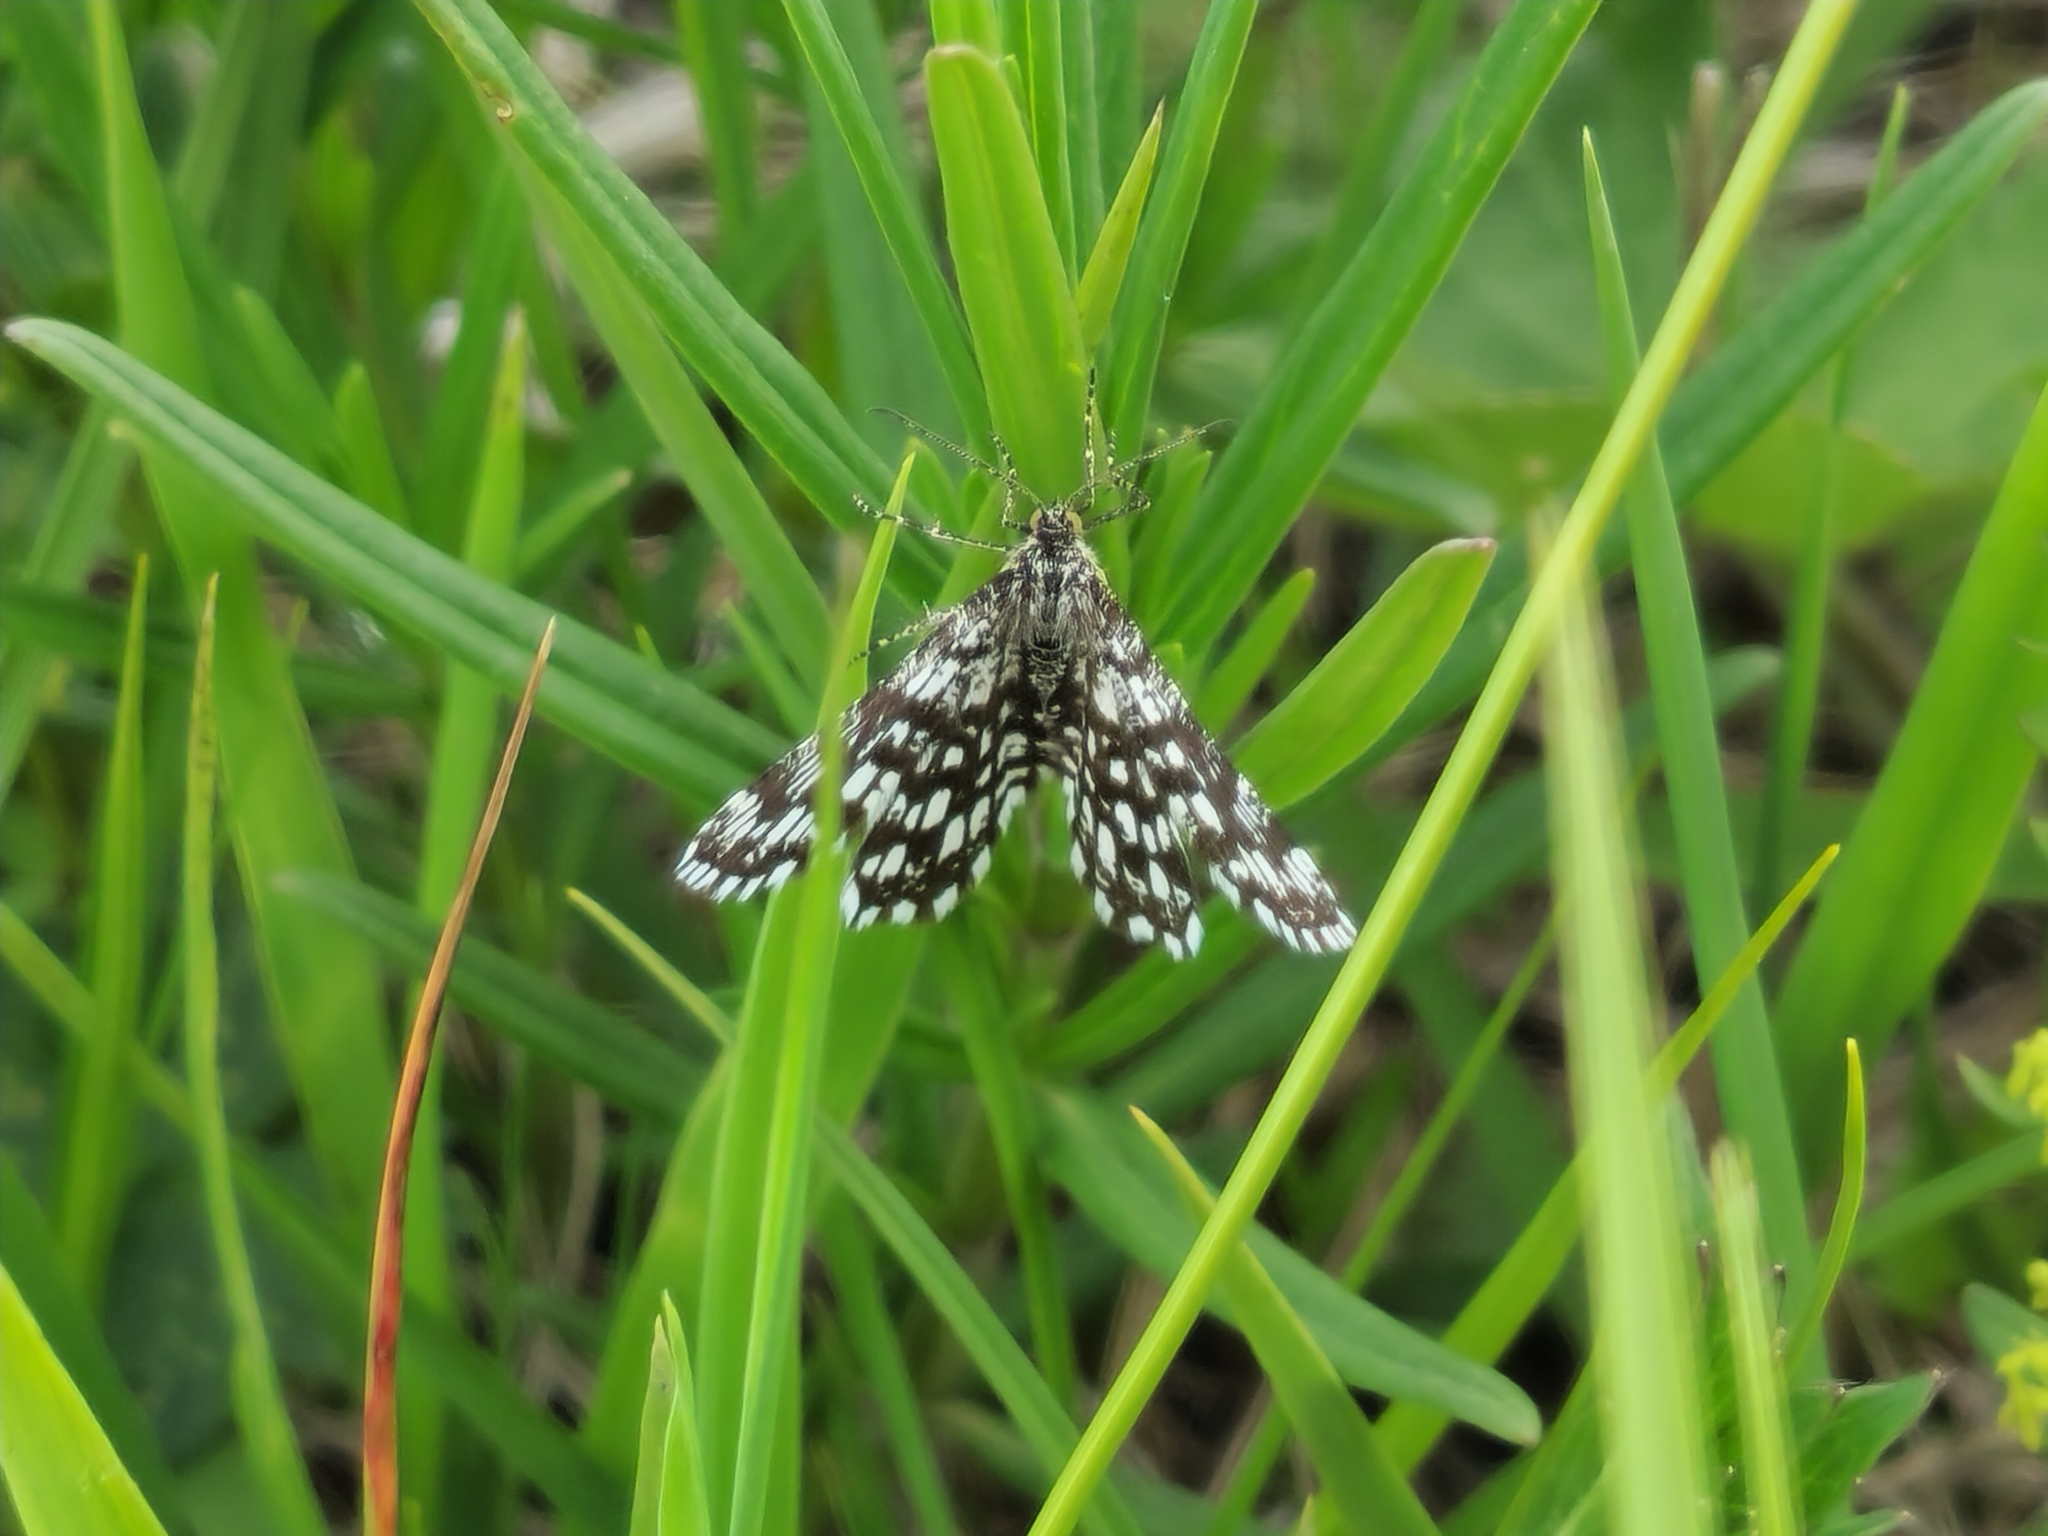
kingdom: Animalia
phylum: Arthropoda
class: Insecta
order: Lepidoptera
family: Geometridae
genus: Chiasmia
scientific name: Chiasmia clathrata
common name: Latticed heath
